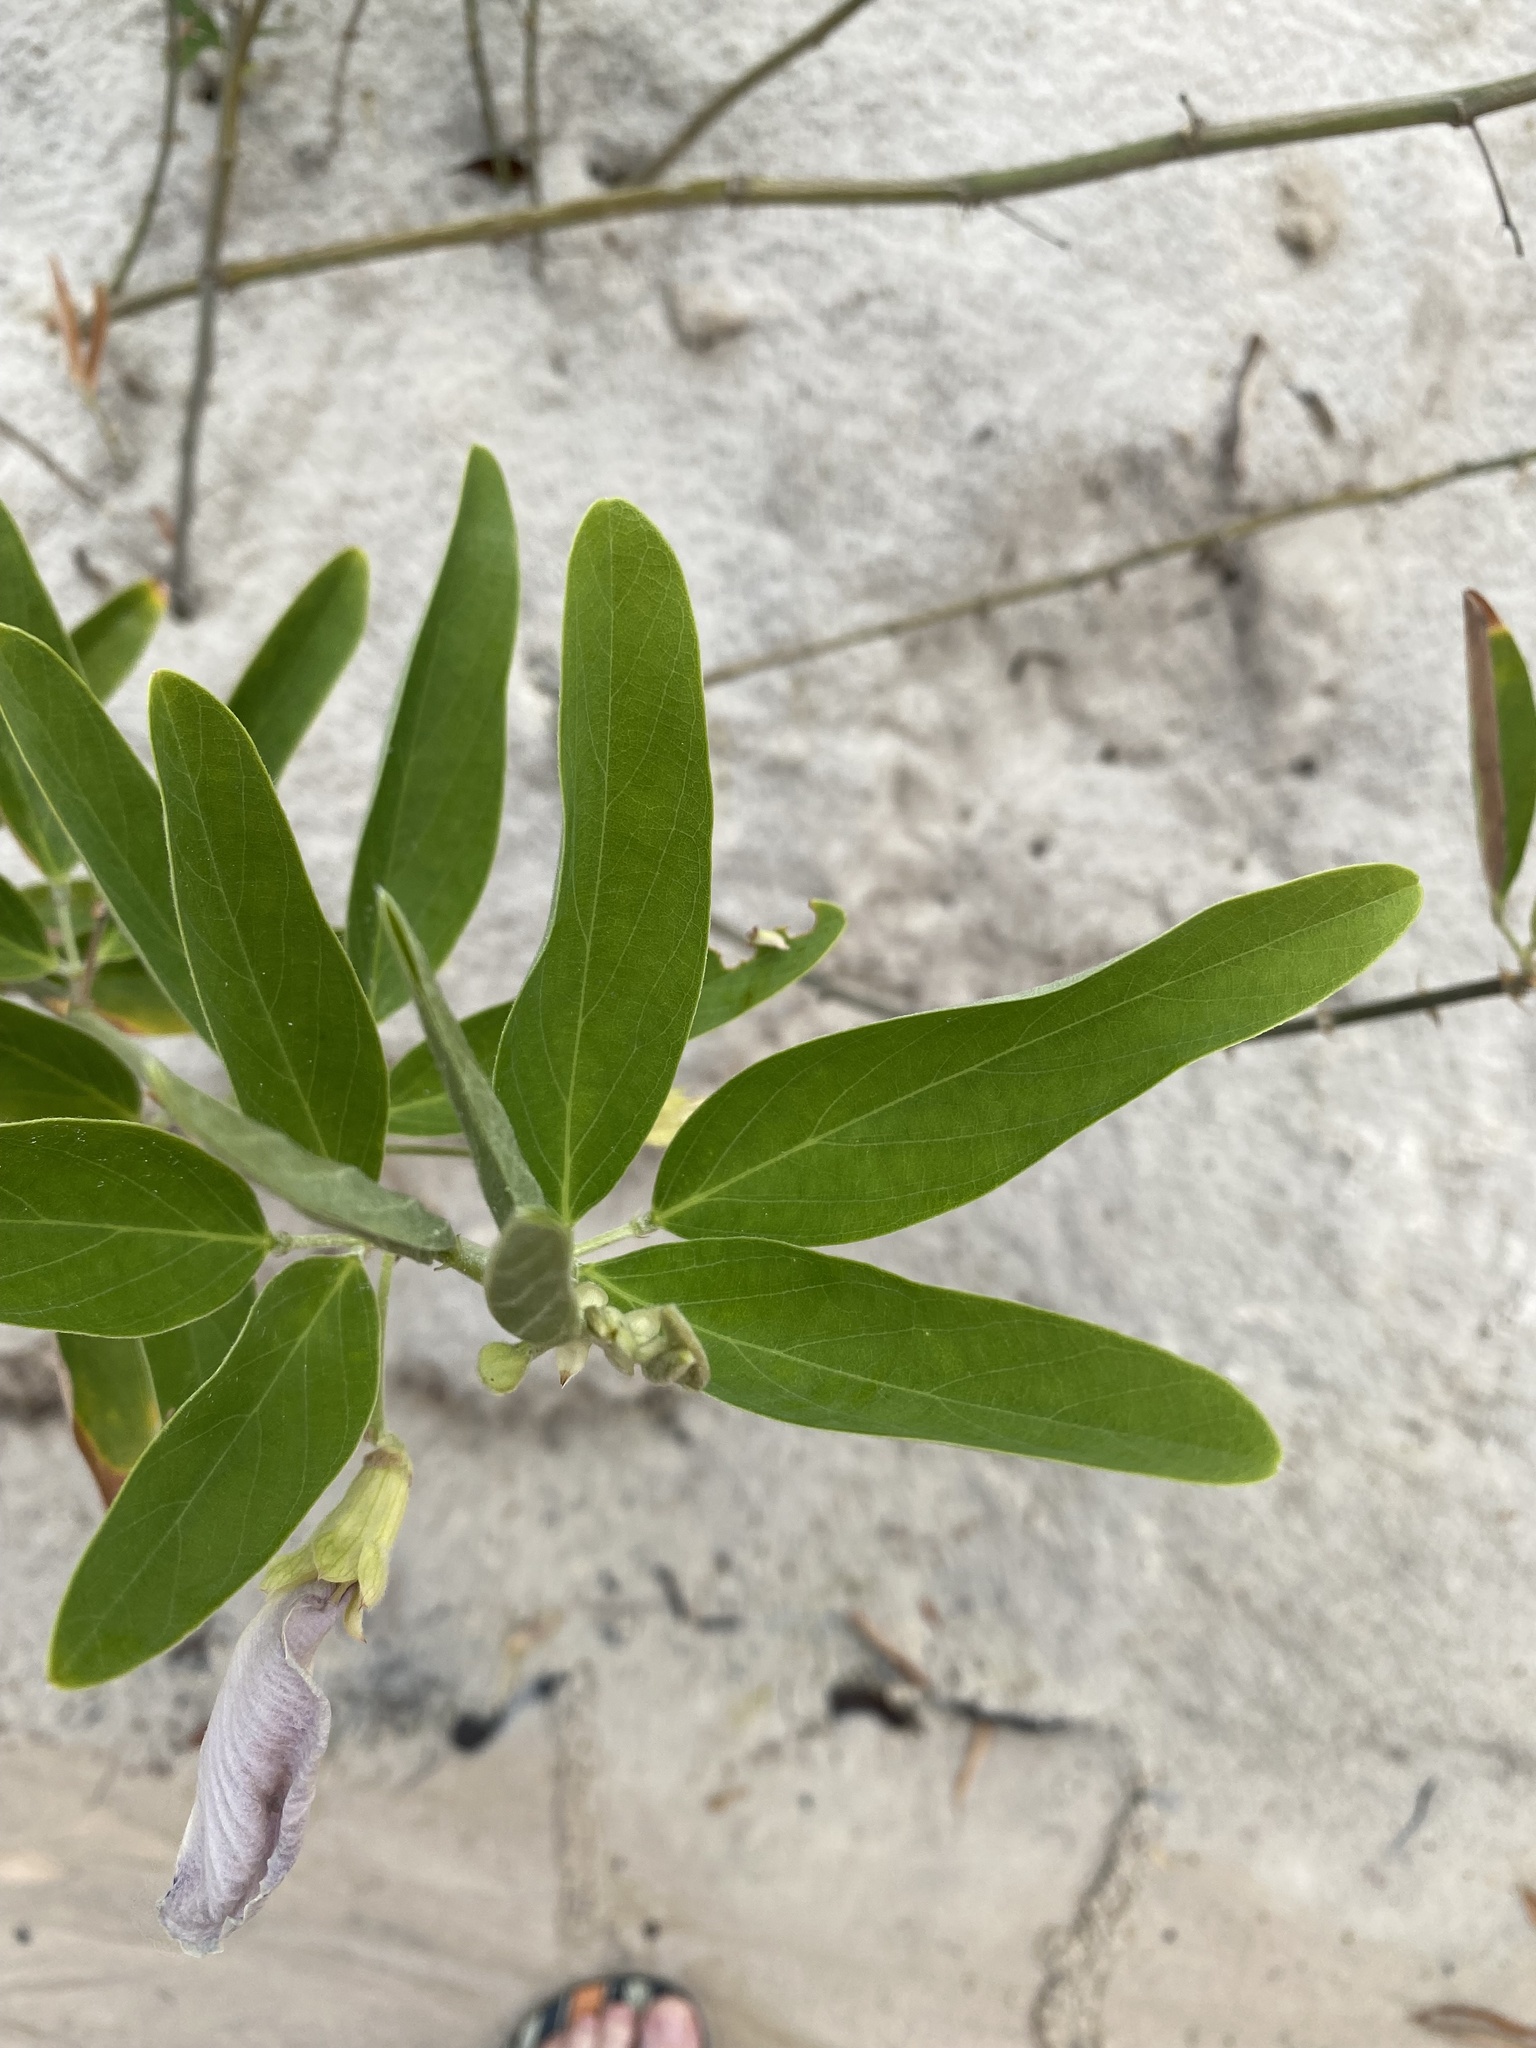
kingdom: Plantae
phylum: Tracheophyta
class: Magnoliopsida
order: Fabales
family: Fabaceae
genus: Clitoria
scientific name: Clitoria laurifolia
